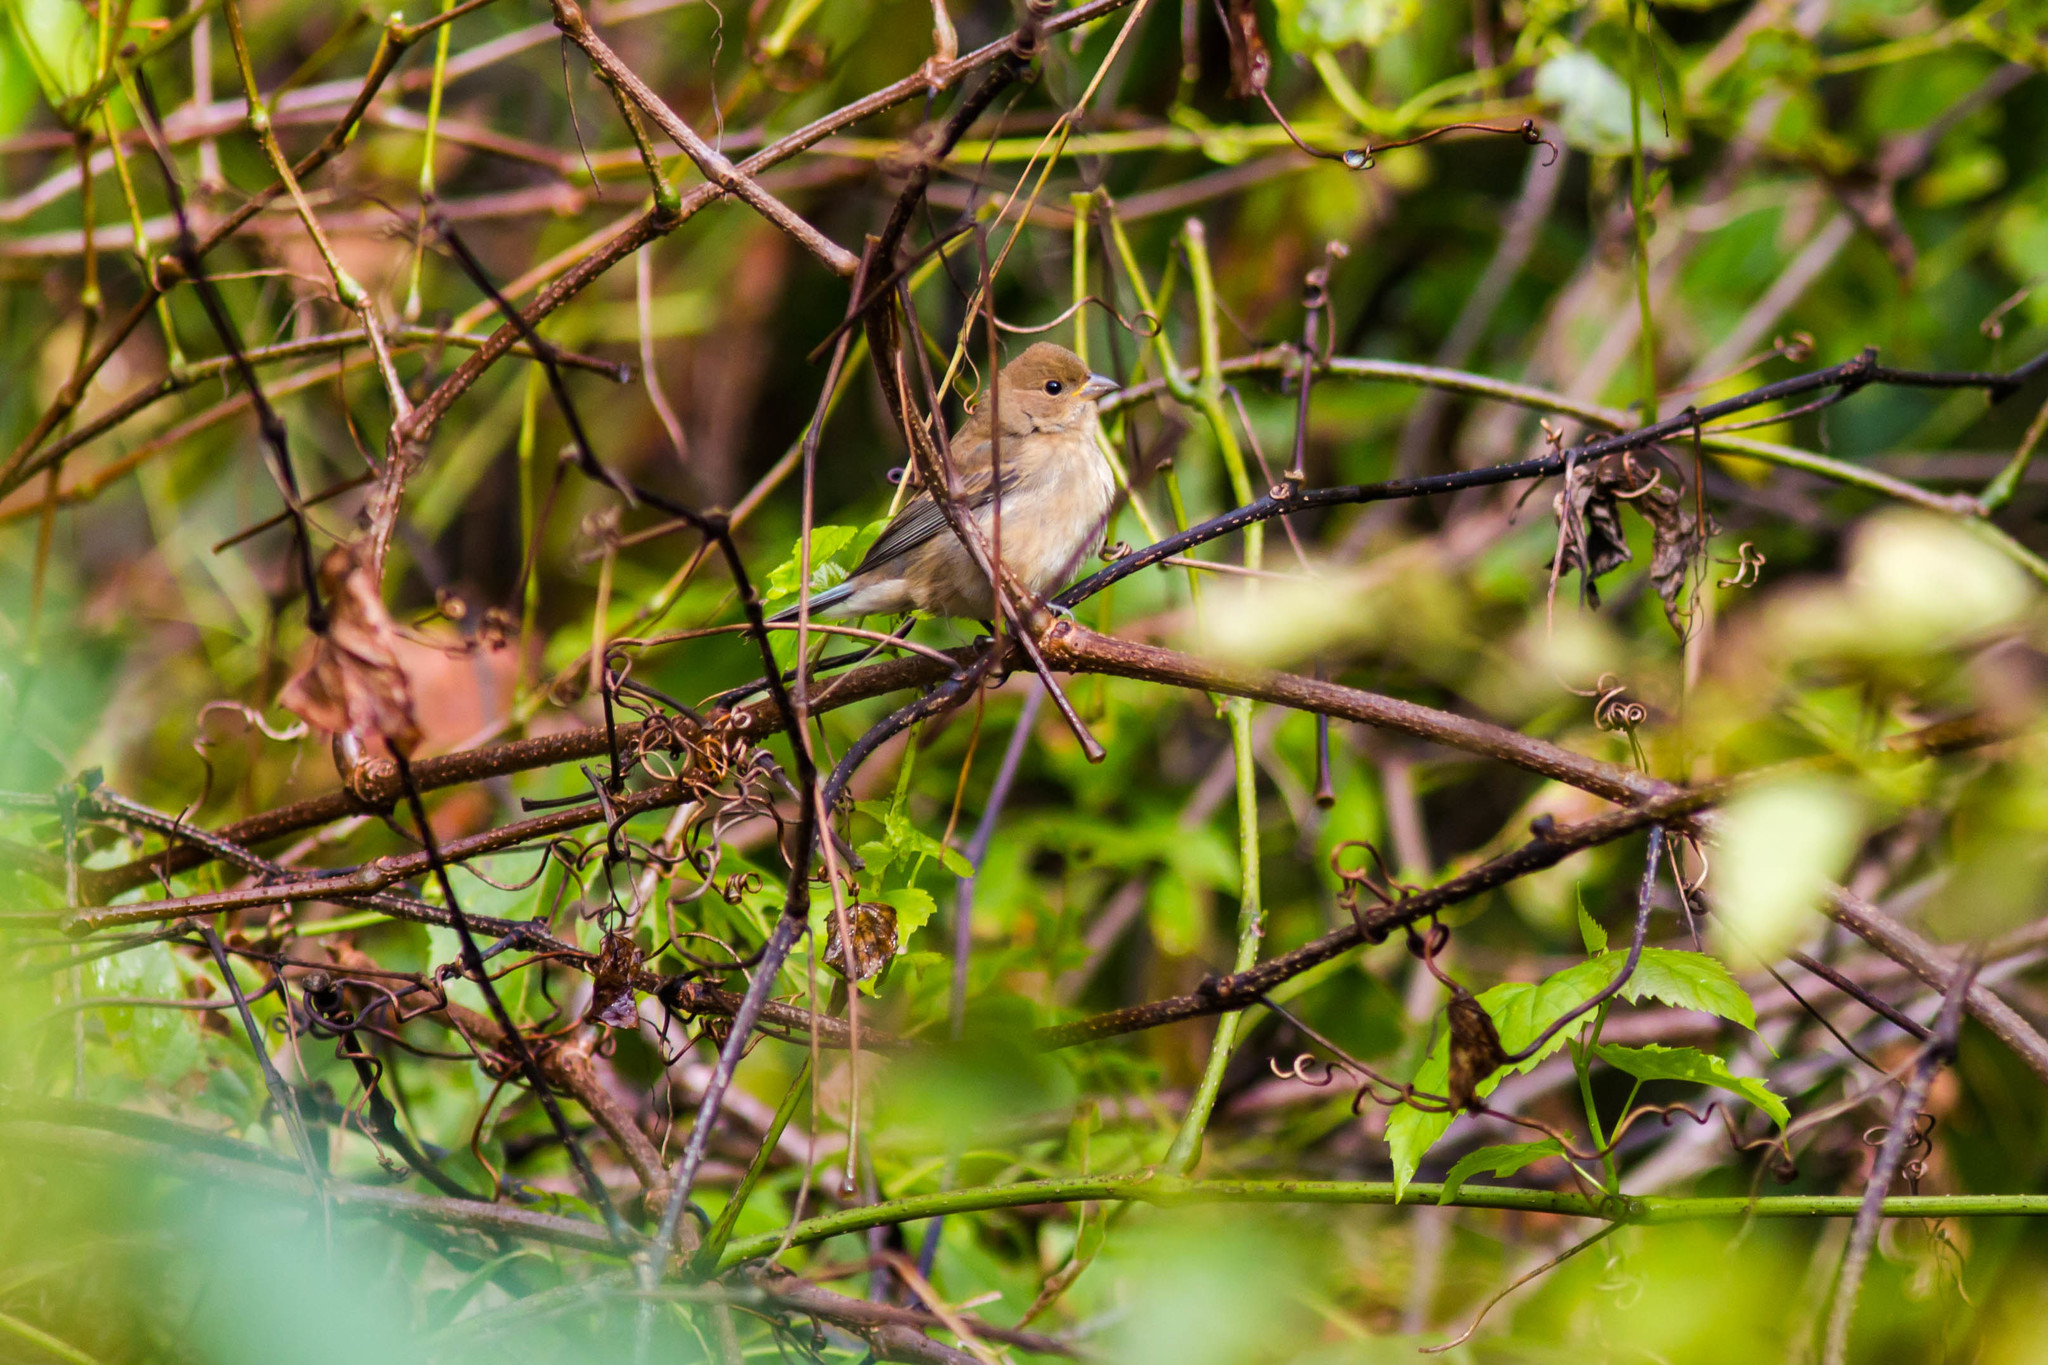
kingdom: Animalia
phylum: Chordata
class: Aves
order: Passeriformes
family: Cardinalidae
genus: Passerina
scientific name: Passerina cyanea
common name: Indigo bunting
